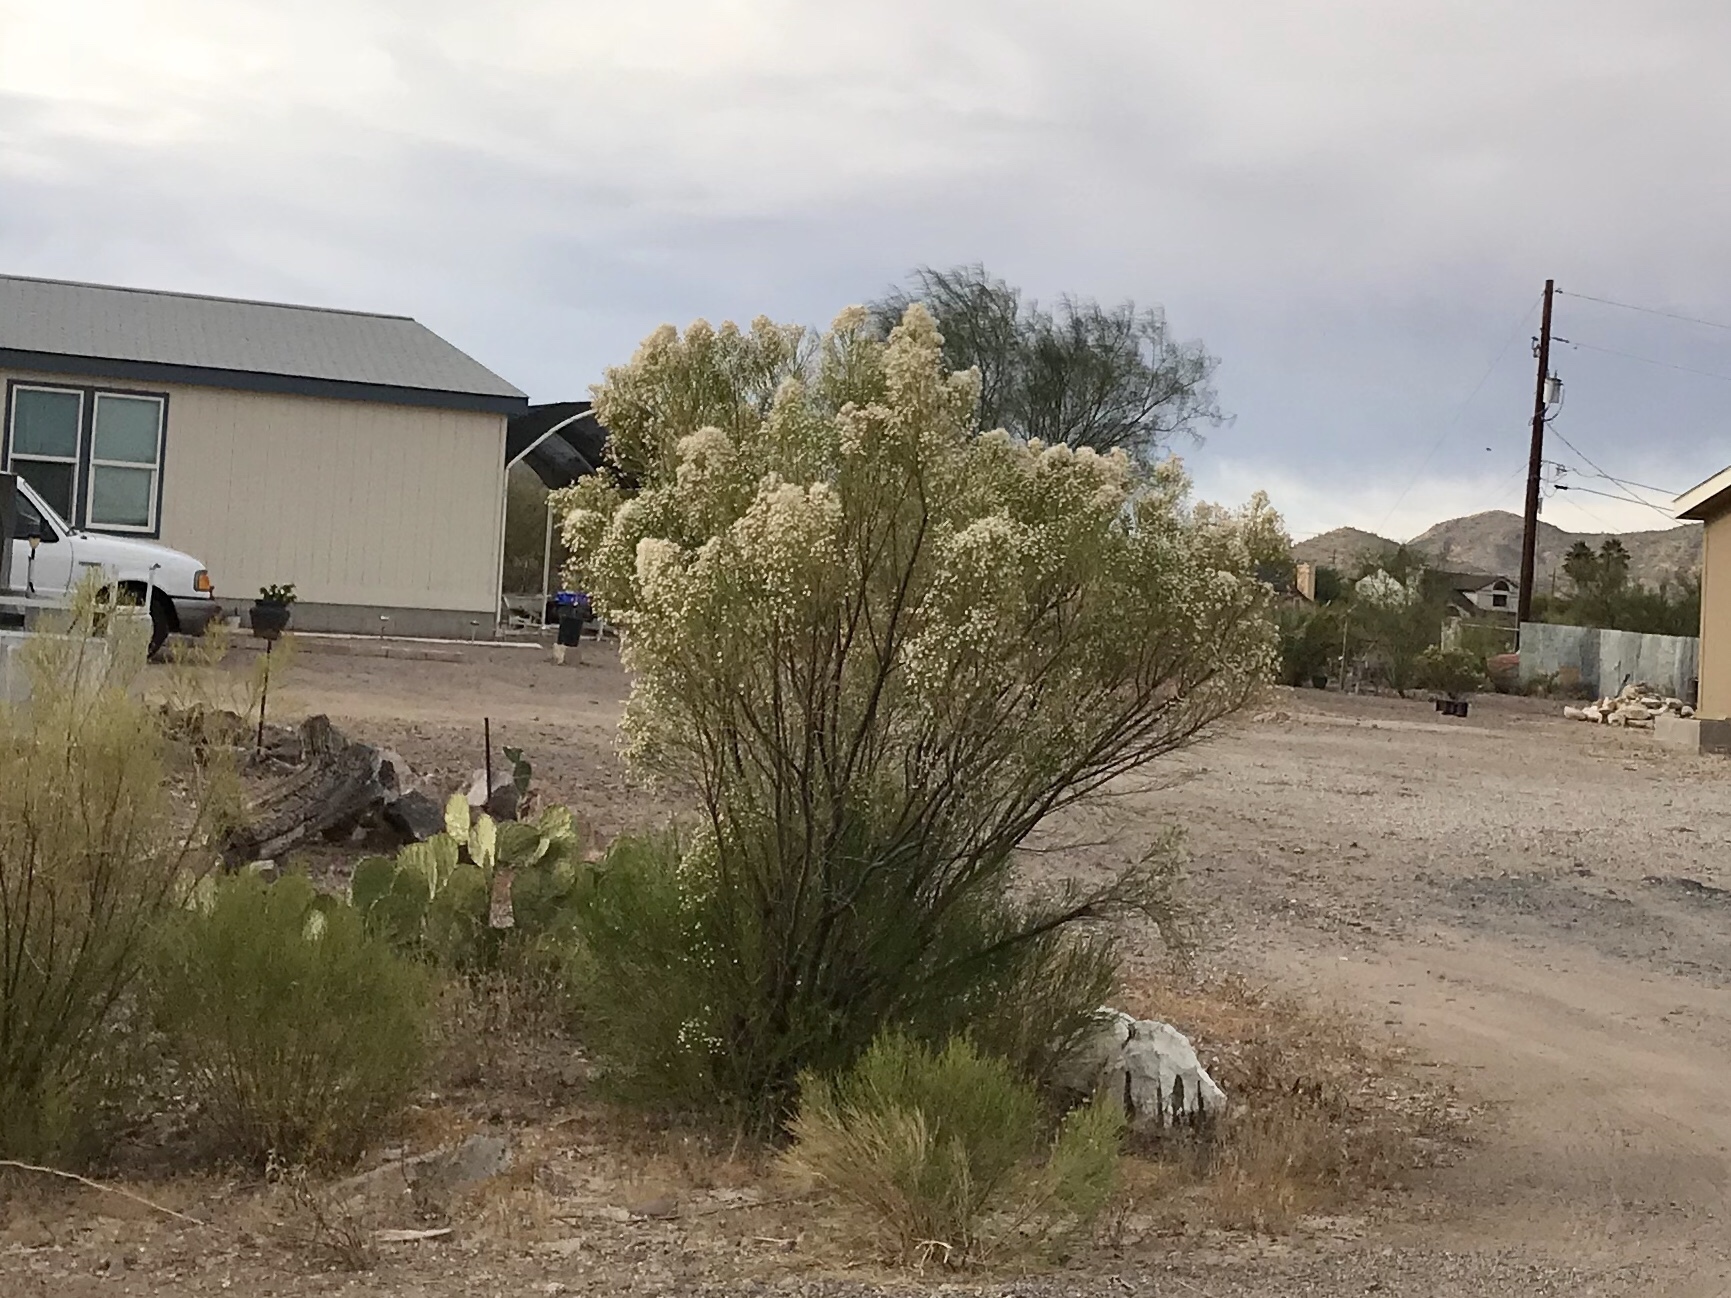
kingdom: Plantae
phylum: Tracheophyta
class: Magnoliopsida
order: Asterales
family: Asteraceae
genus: Baccharis
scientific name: Baccharis sarothroides
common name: Desert-broom
